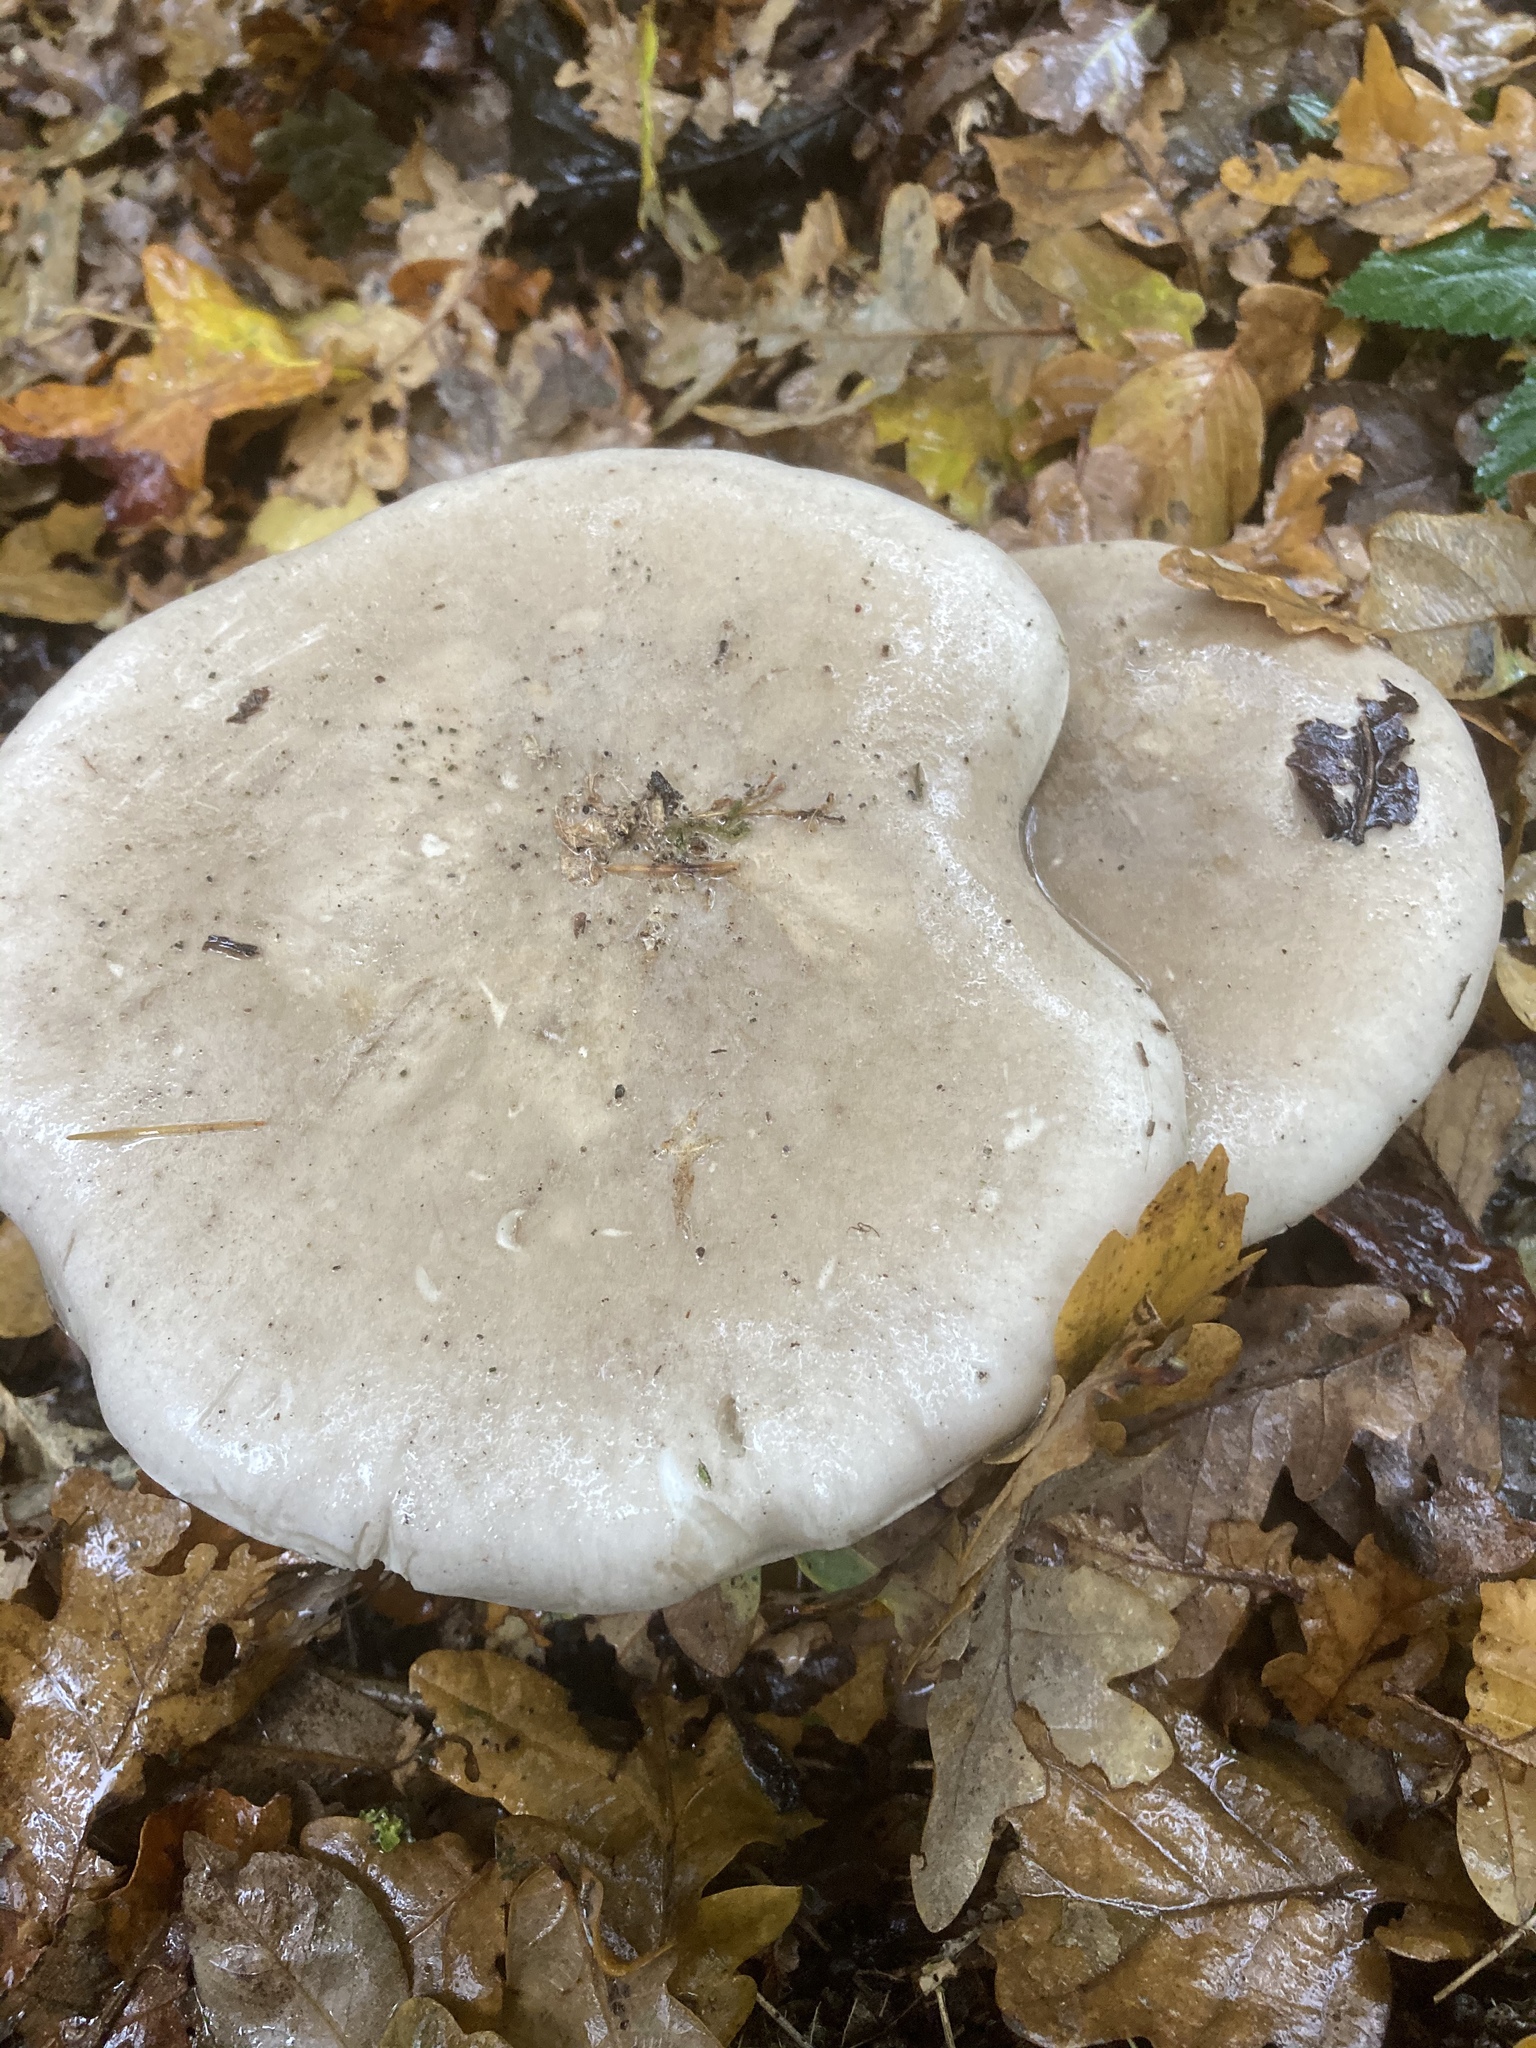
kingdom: Fungi
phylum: Basidiomycota
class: Agaricomycetes
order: Agaricales
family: Tricholomataceae
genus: Clitocybe
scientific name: Clitocybe nebularis
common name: Clouded agaric
